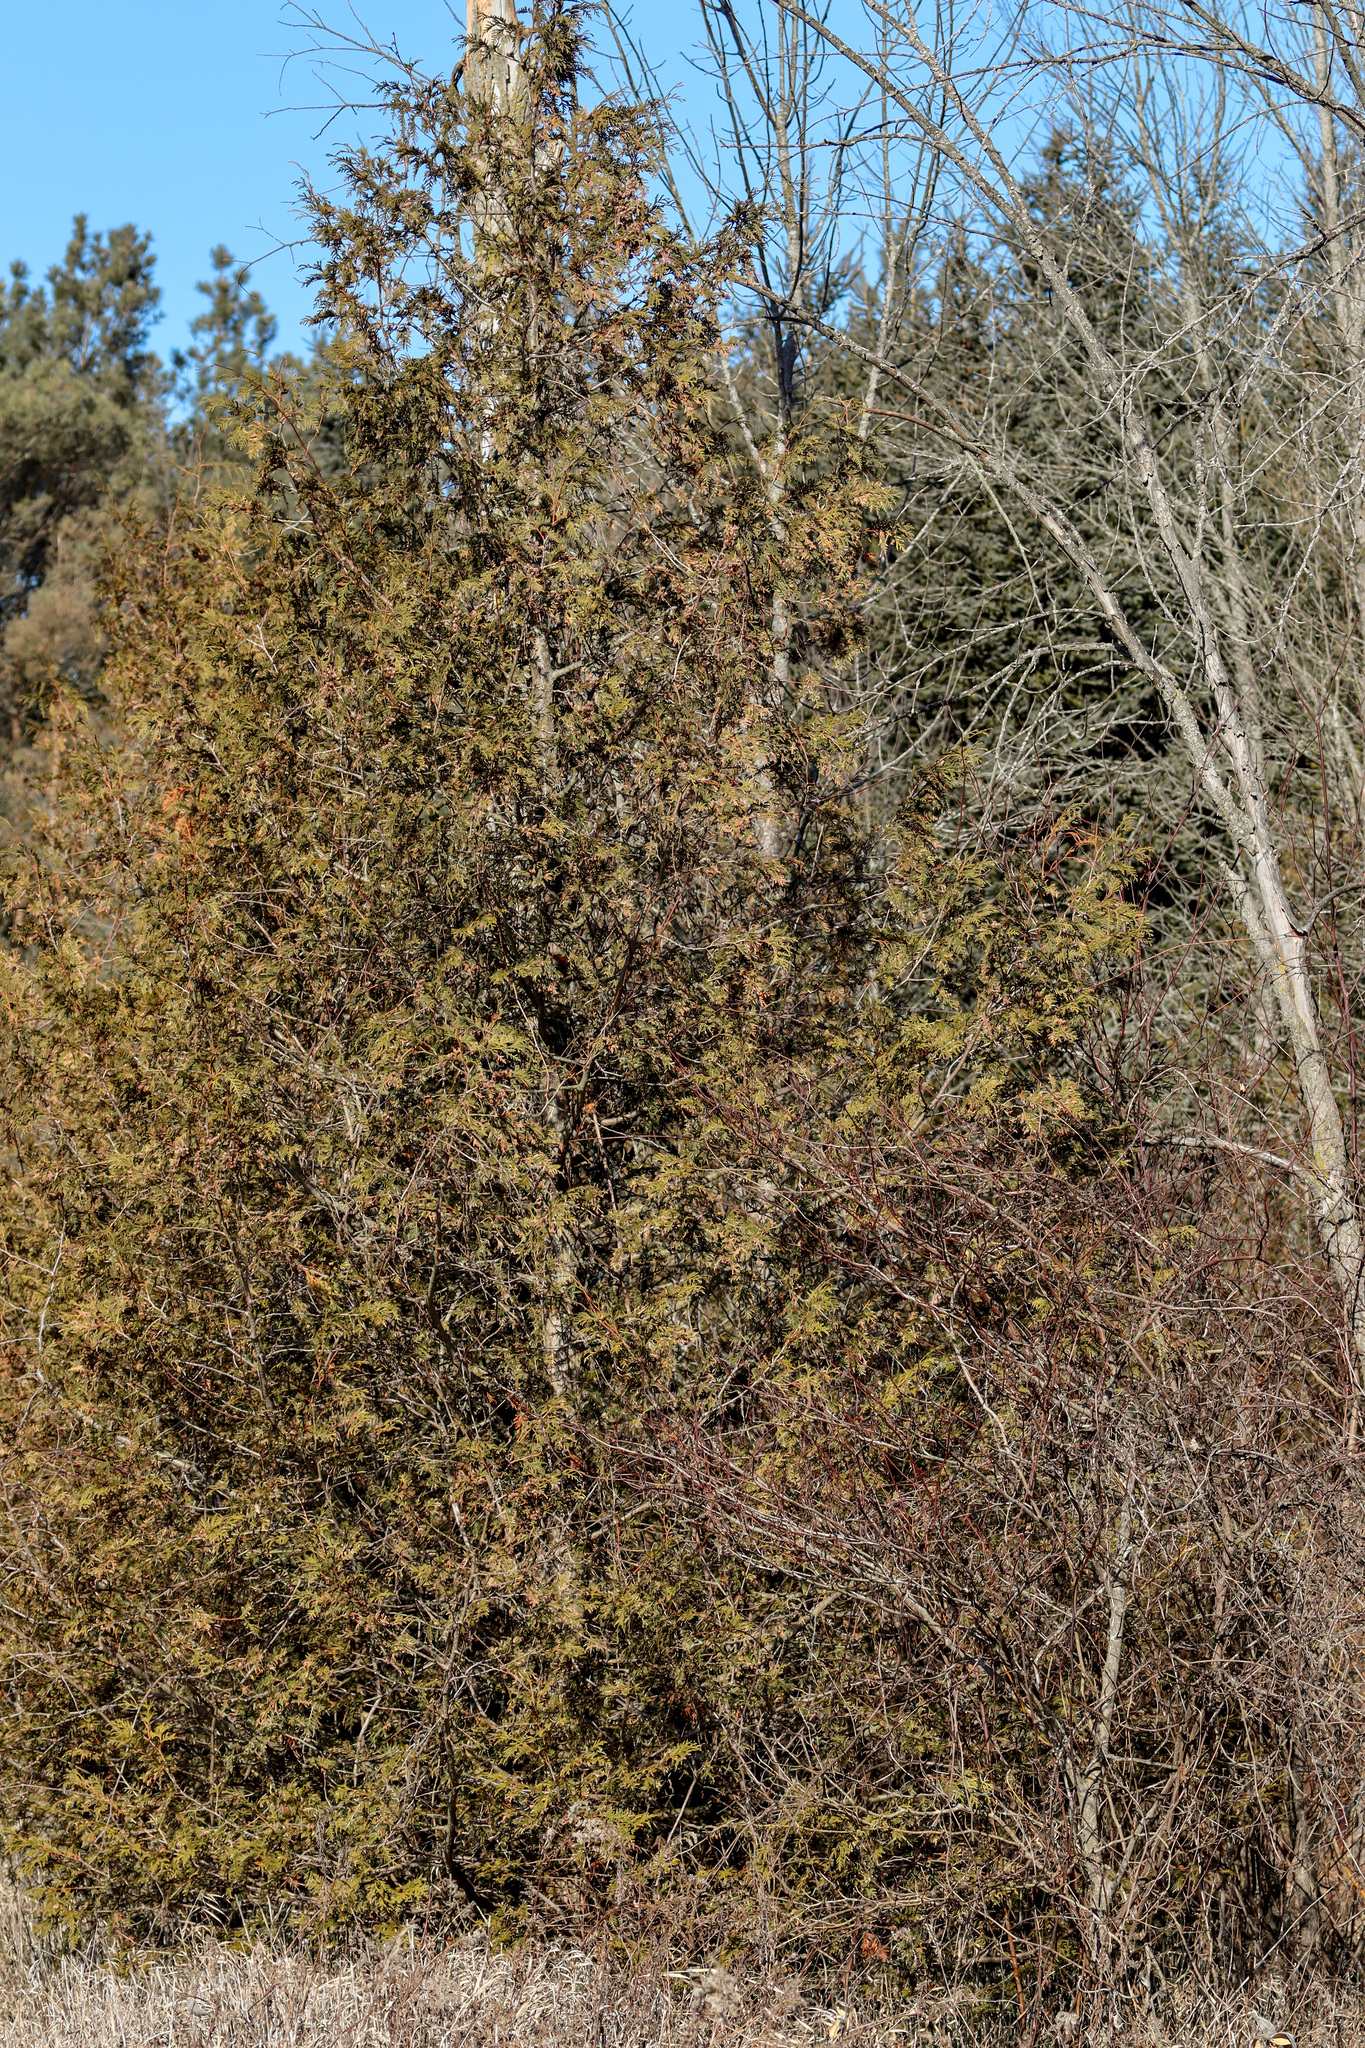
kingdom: Plantae
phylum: Tracheophyta
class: Pinopsida
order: Pinales
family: Cupressaceae
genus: Thuja
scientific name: Thuja occidentalis
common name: Northern white-cedar
